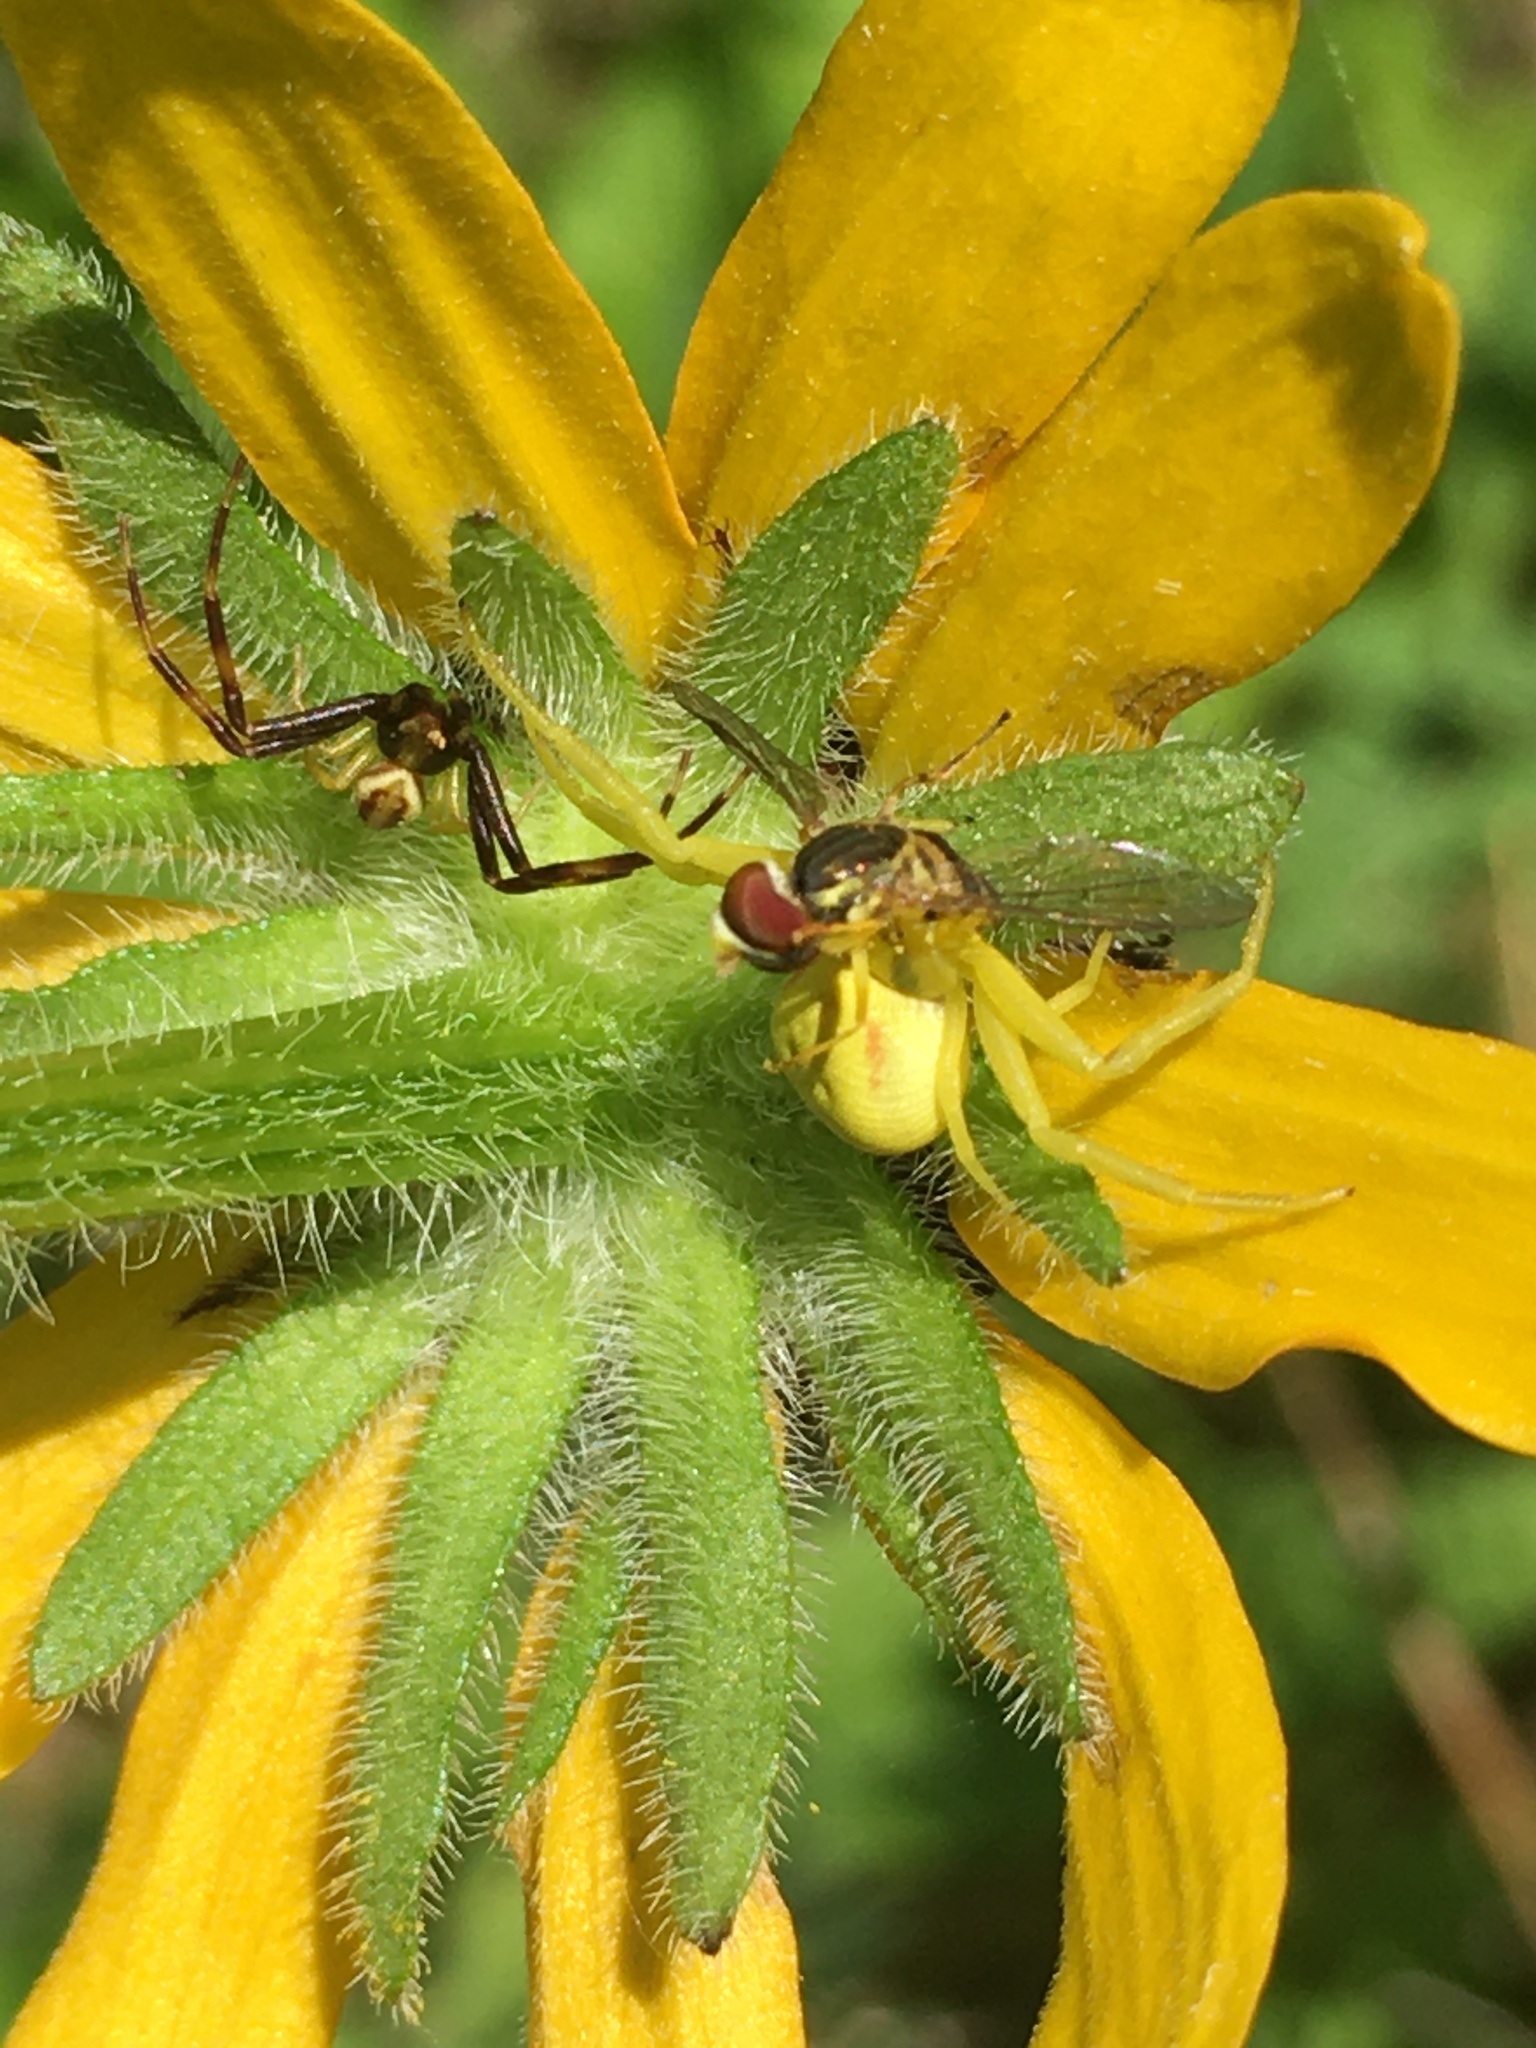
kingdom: Animalia
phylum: Arthropoda
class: Arachnida
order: Araneae
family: Thomisidae
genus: Misumena
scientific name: Misumena vatia
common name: Goldenrod crab spider
